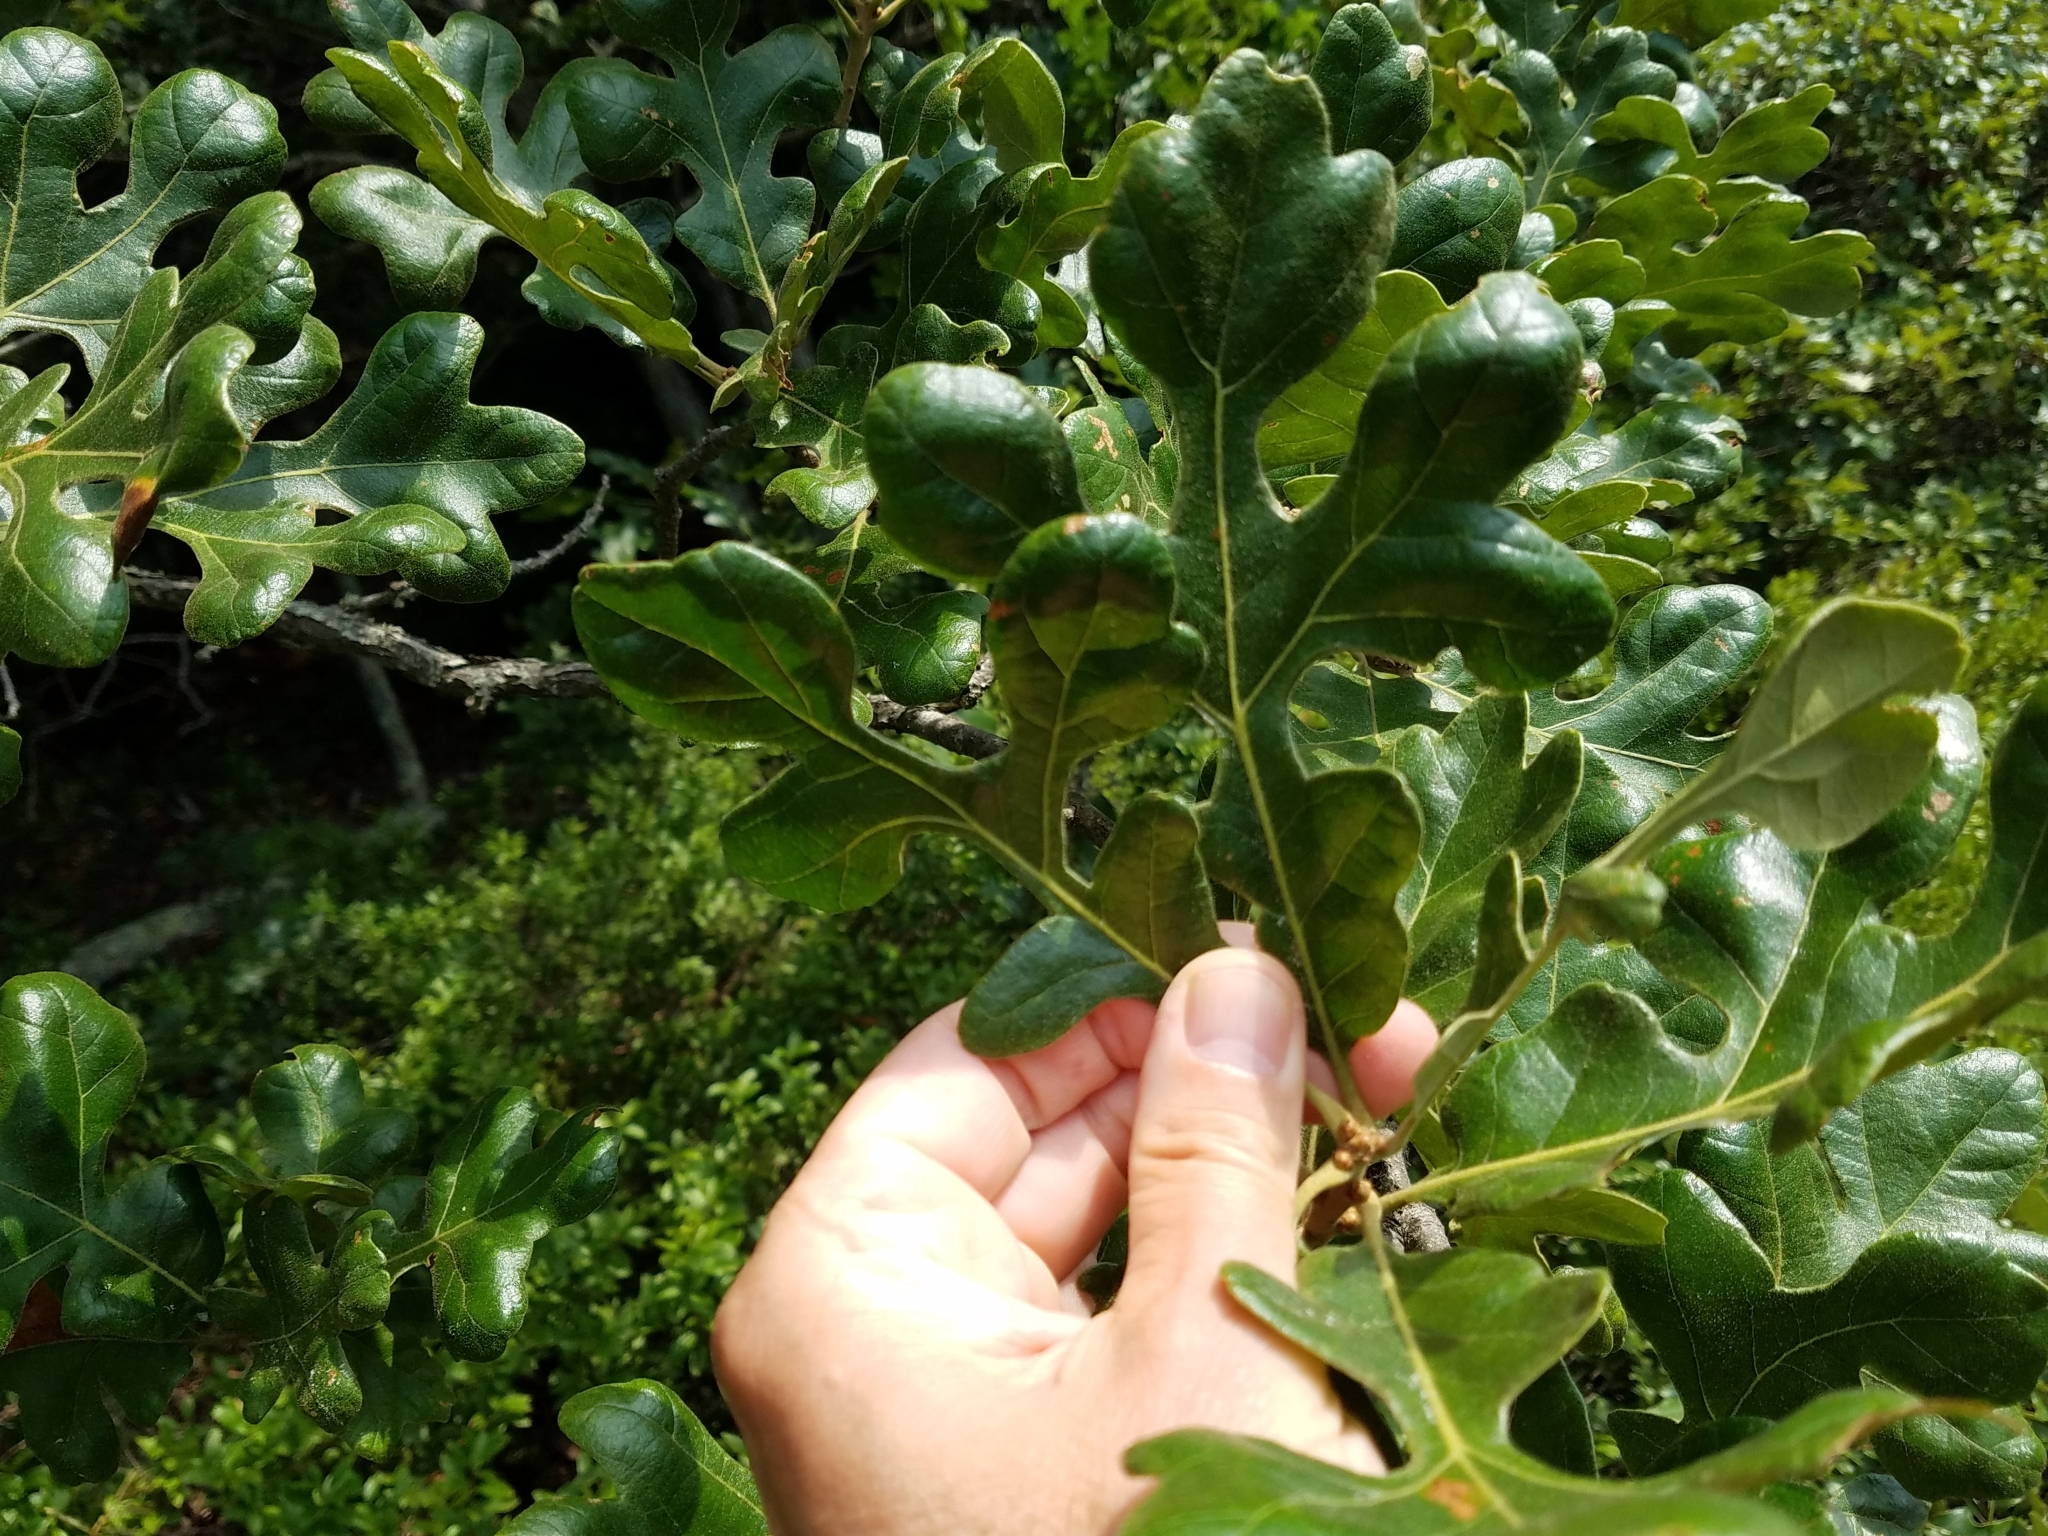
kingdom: Plantae
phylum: Tracheophyta
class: Magnoliopsida
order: Fagales
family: Fagaceae
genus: Quercus
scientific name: Quercus stellata
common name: Post oak
